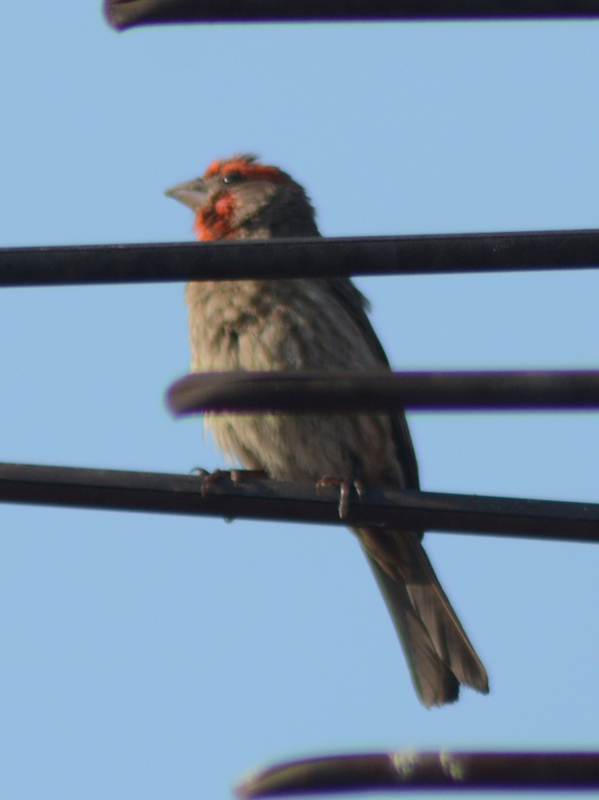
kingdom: Animalia
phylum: Chordata
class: Aves
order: Passeriformes
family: Fringillidae
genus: Haemorhous
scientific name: Haemorhous mexicanus
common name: House finch
